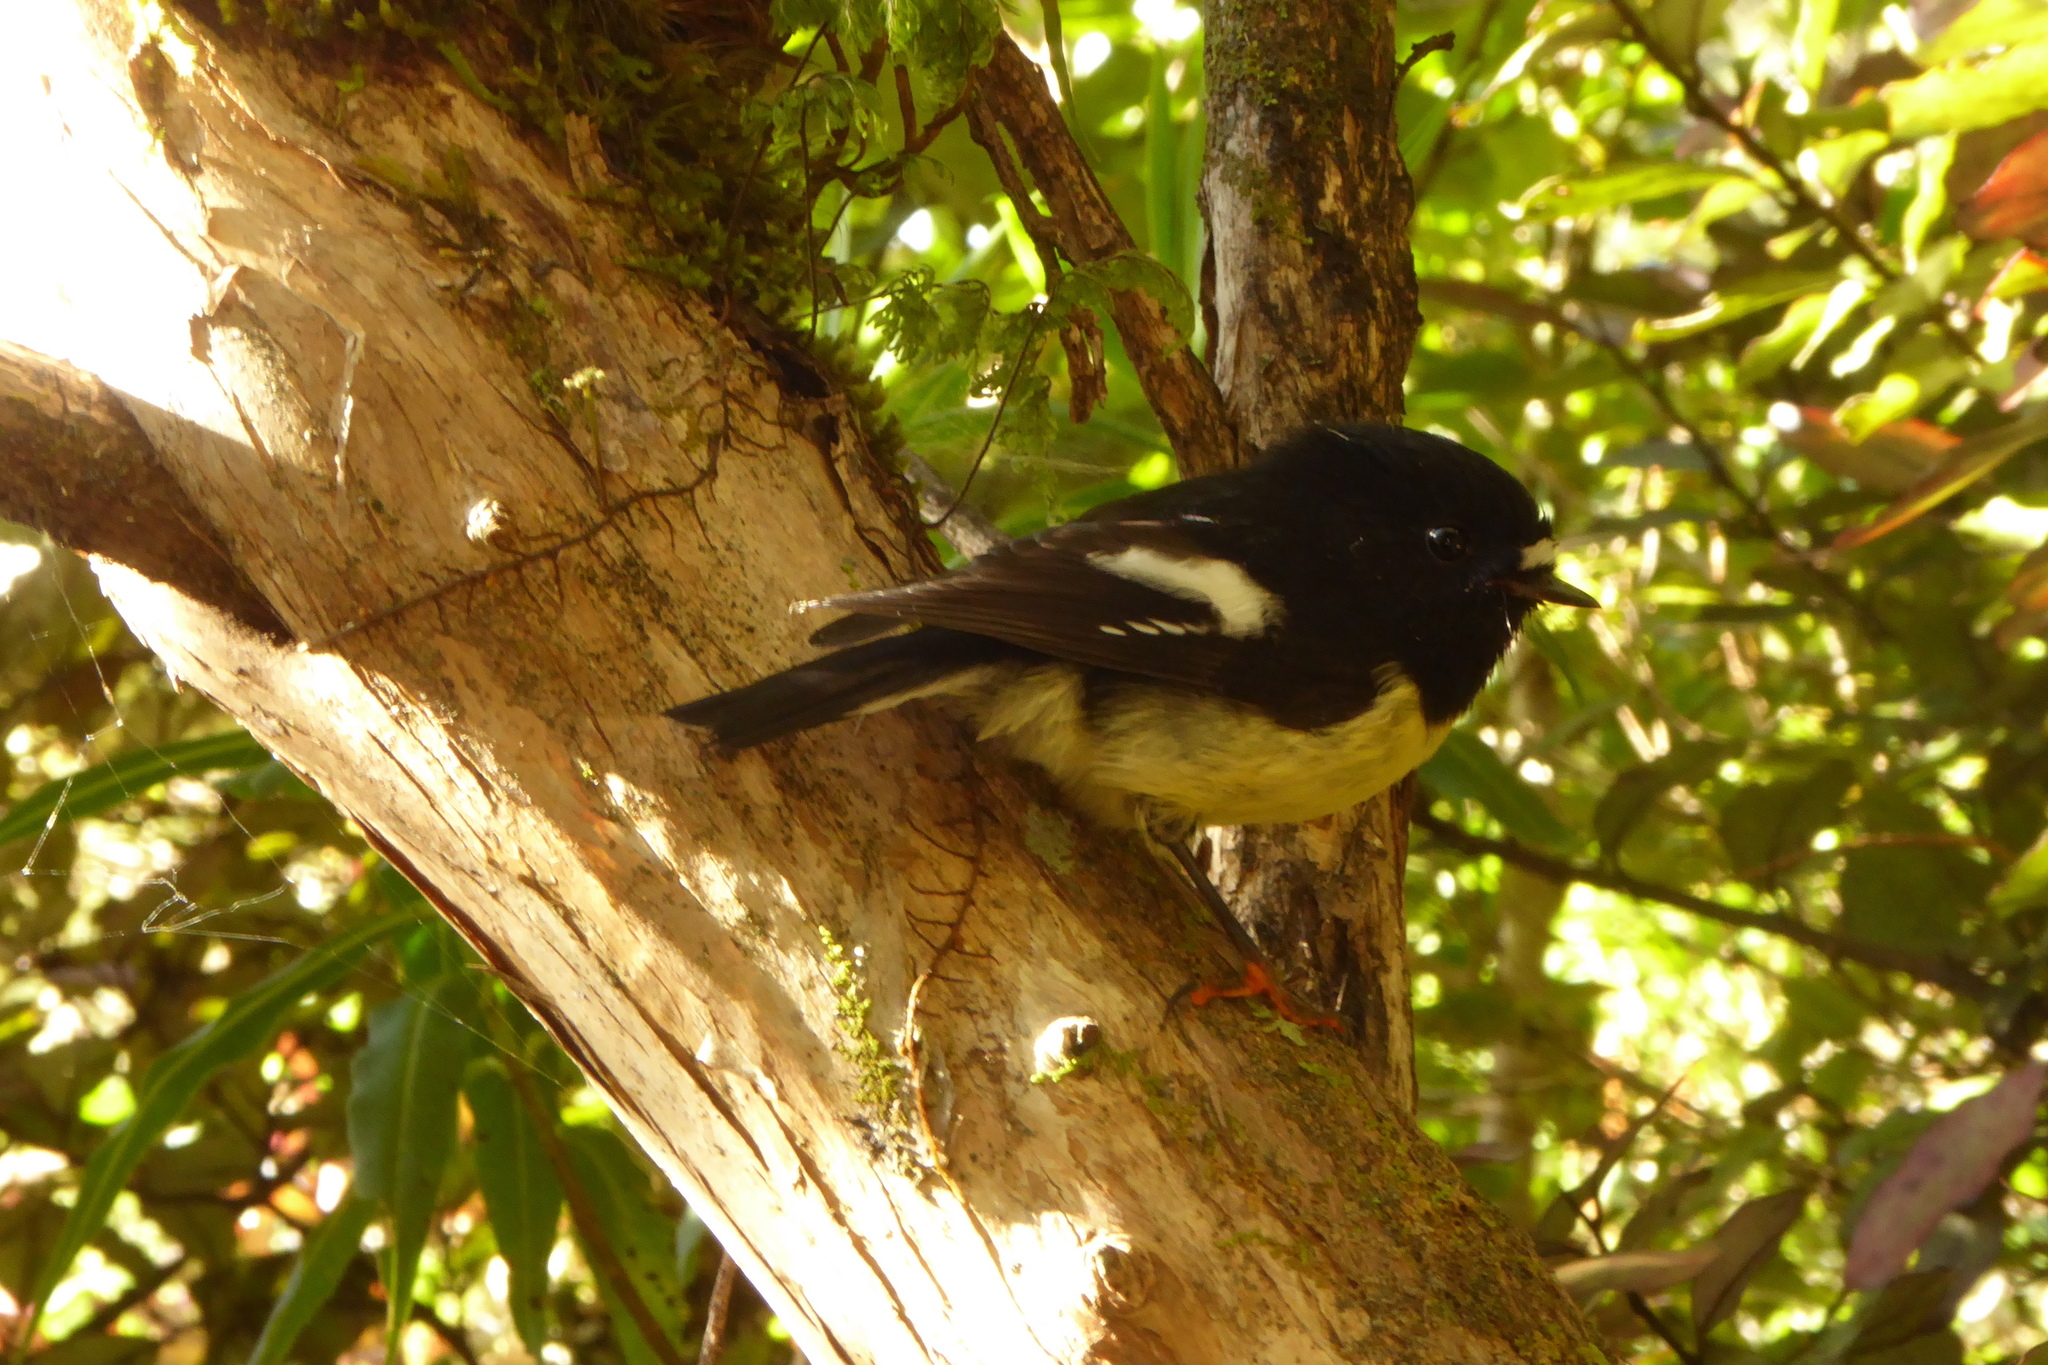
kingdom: Animalia
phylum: Chordata
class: Aves
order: Passeriformes
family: Petroicidae
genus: Petroica
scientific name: Petroica macrocephala
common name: Tomtit
